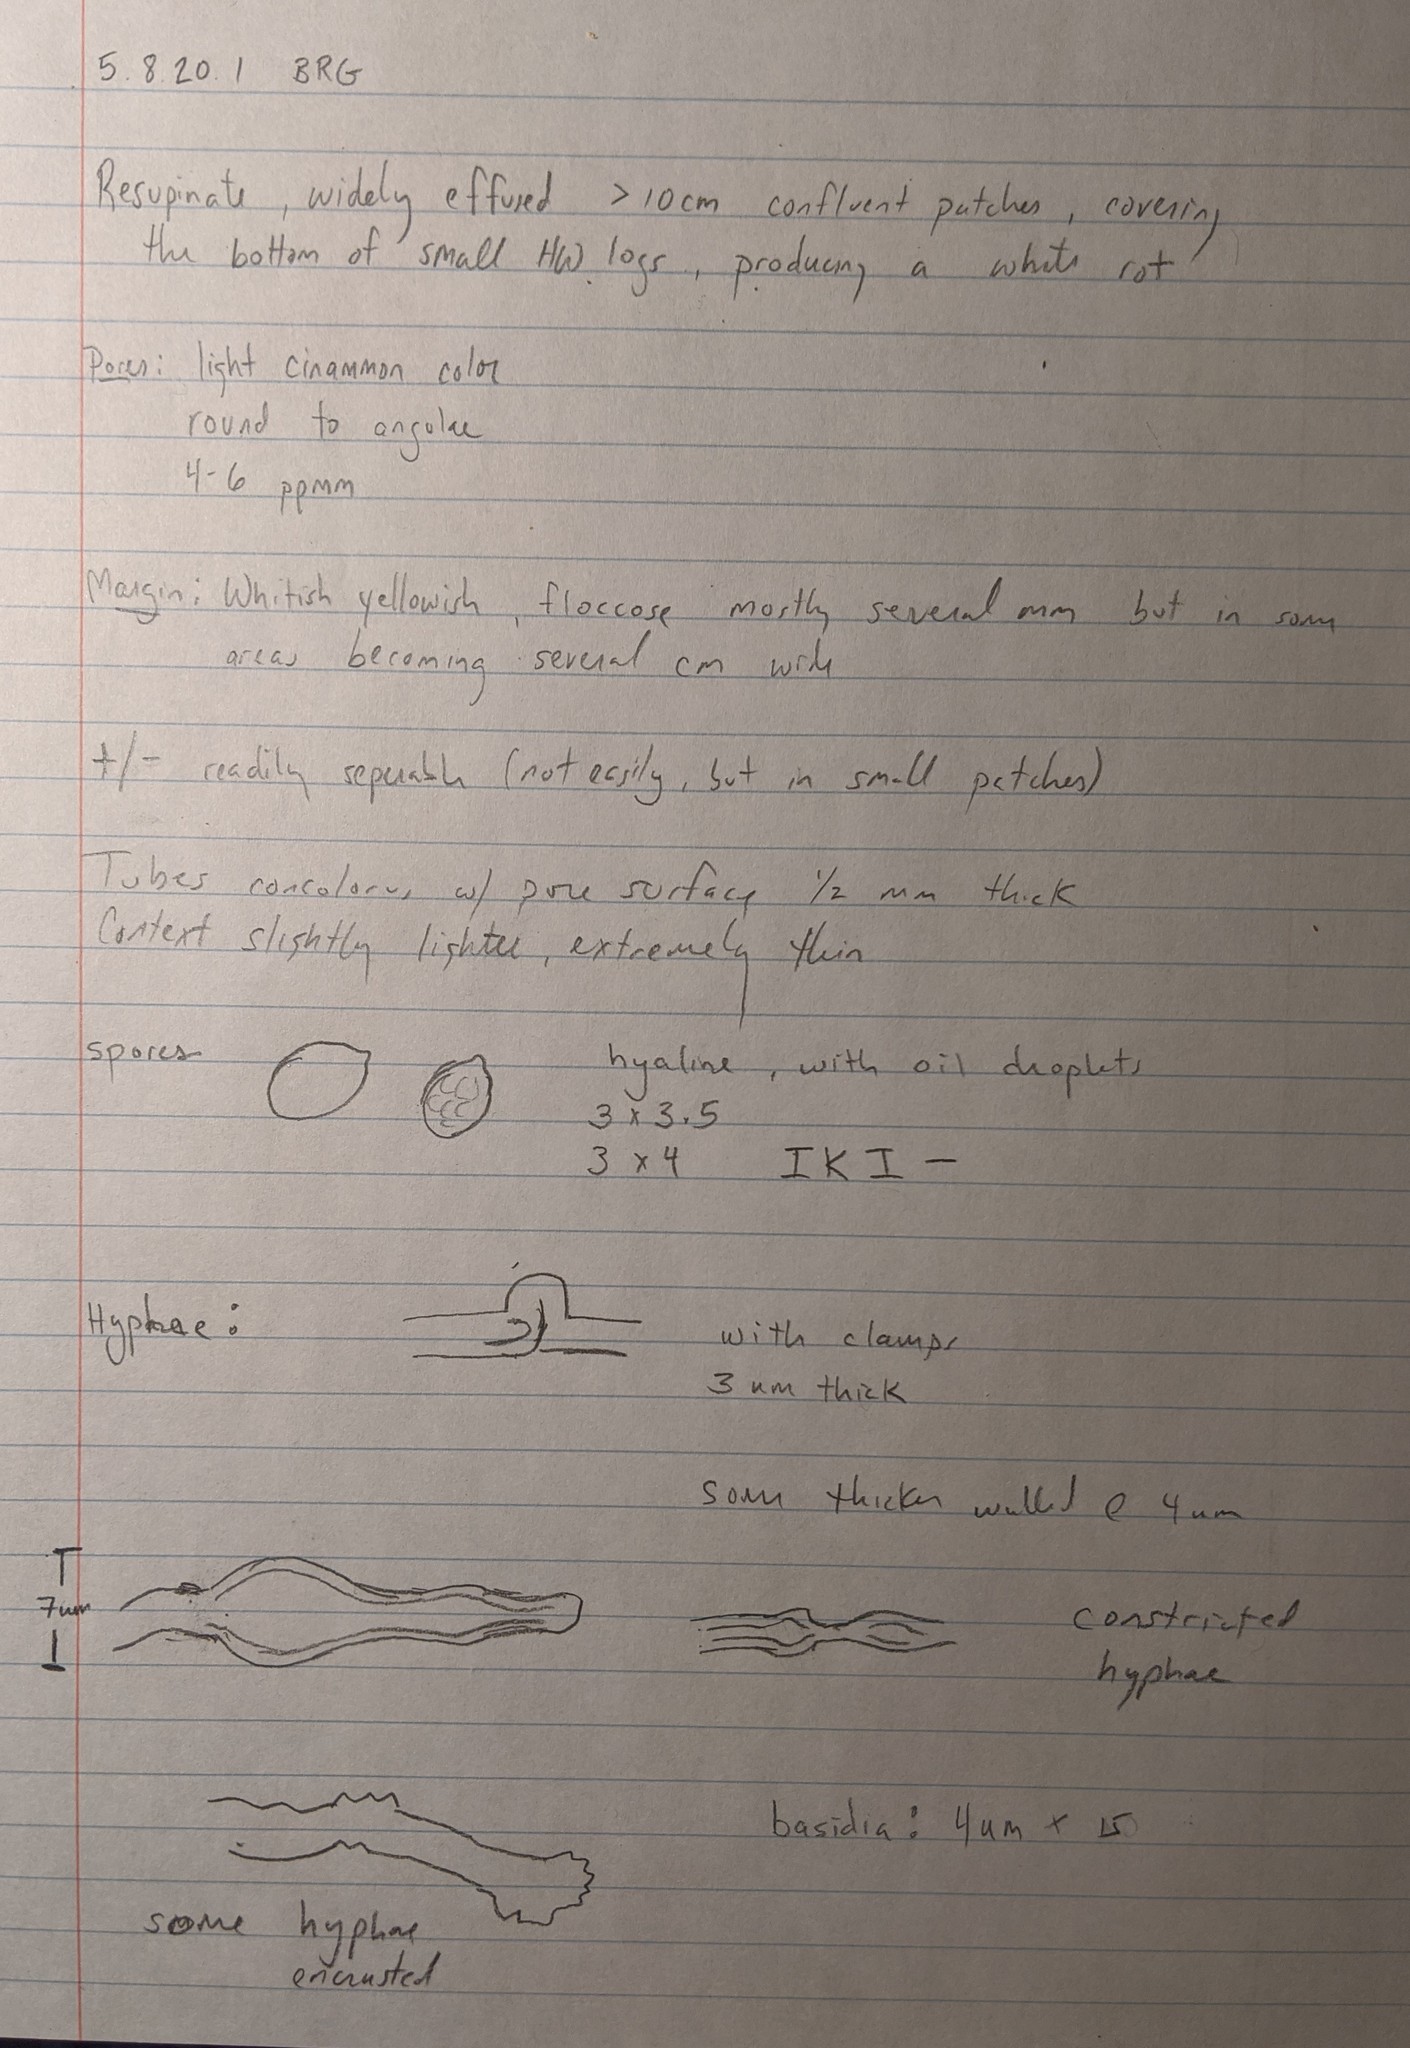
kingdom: Fungi
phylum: Basidiomycota
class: Agaricomycetes
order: Polyporales
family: Meruliaceae
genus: Ceriporiopsis
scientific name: Ceriporiopsis mucida
